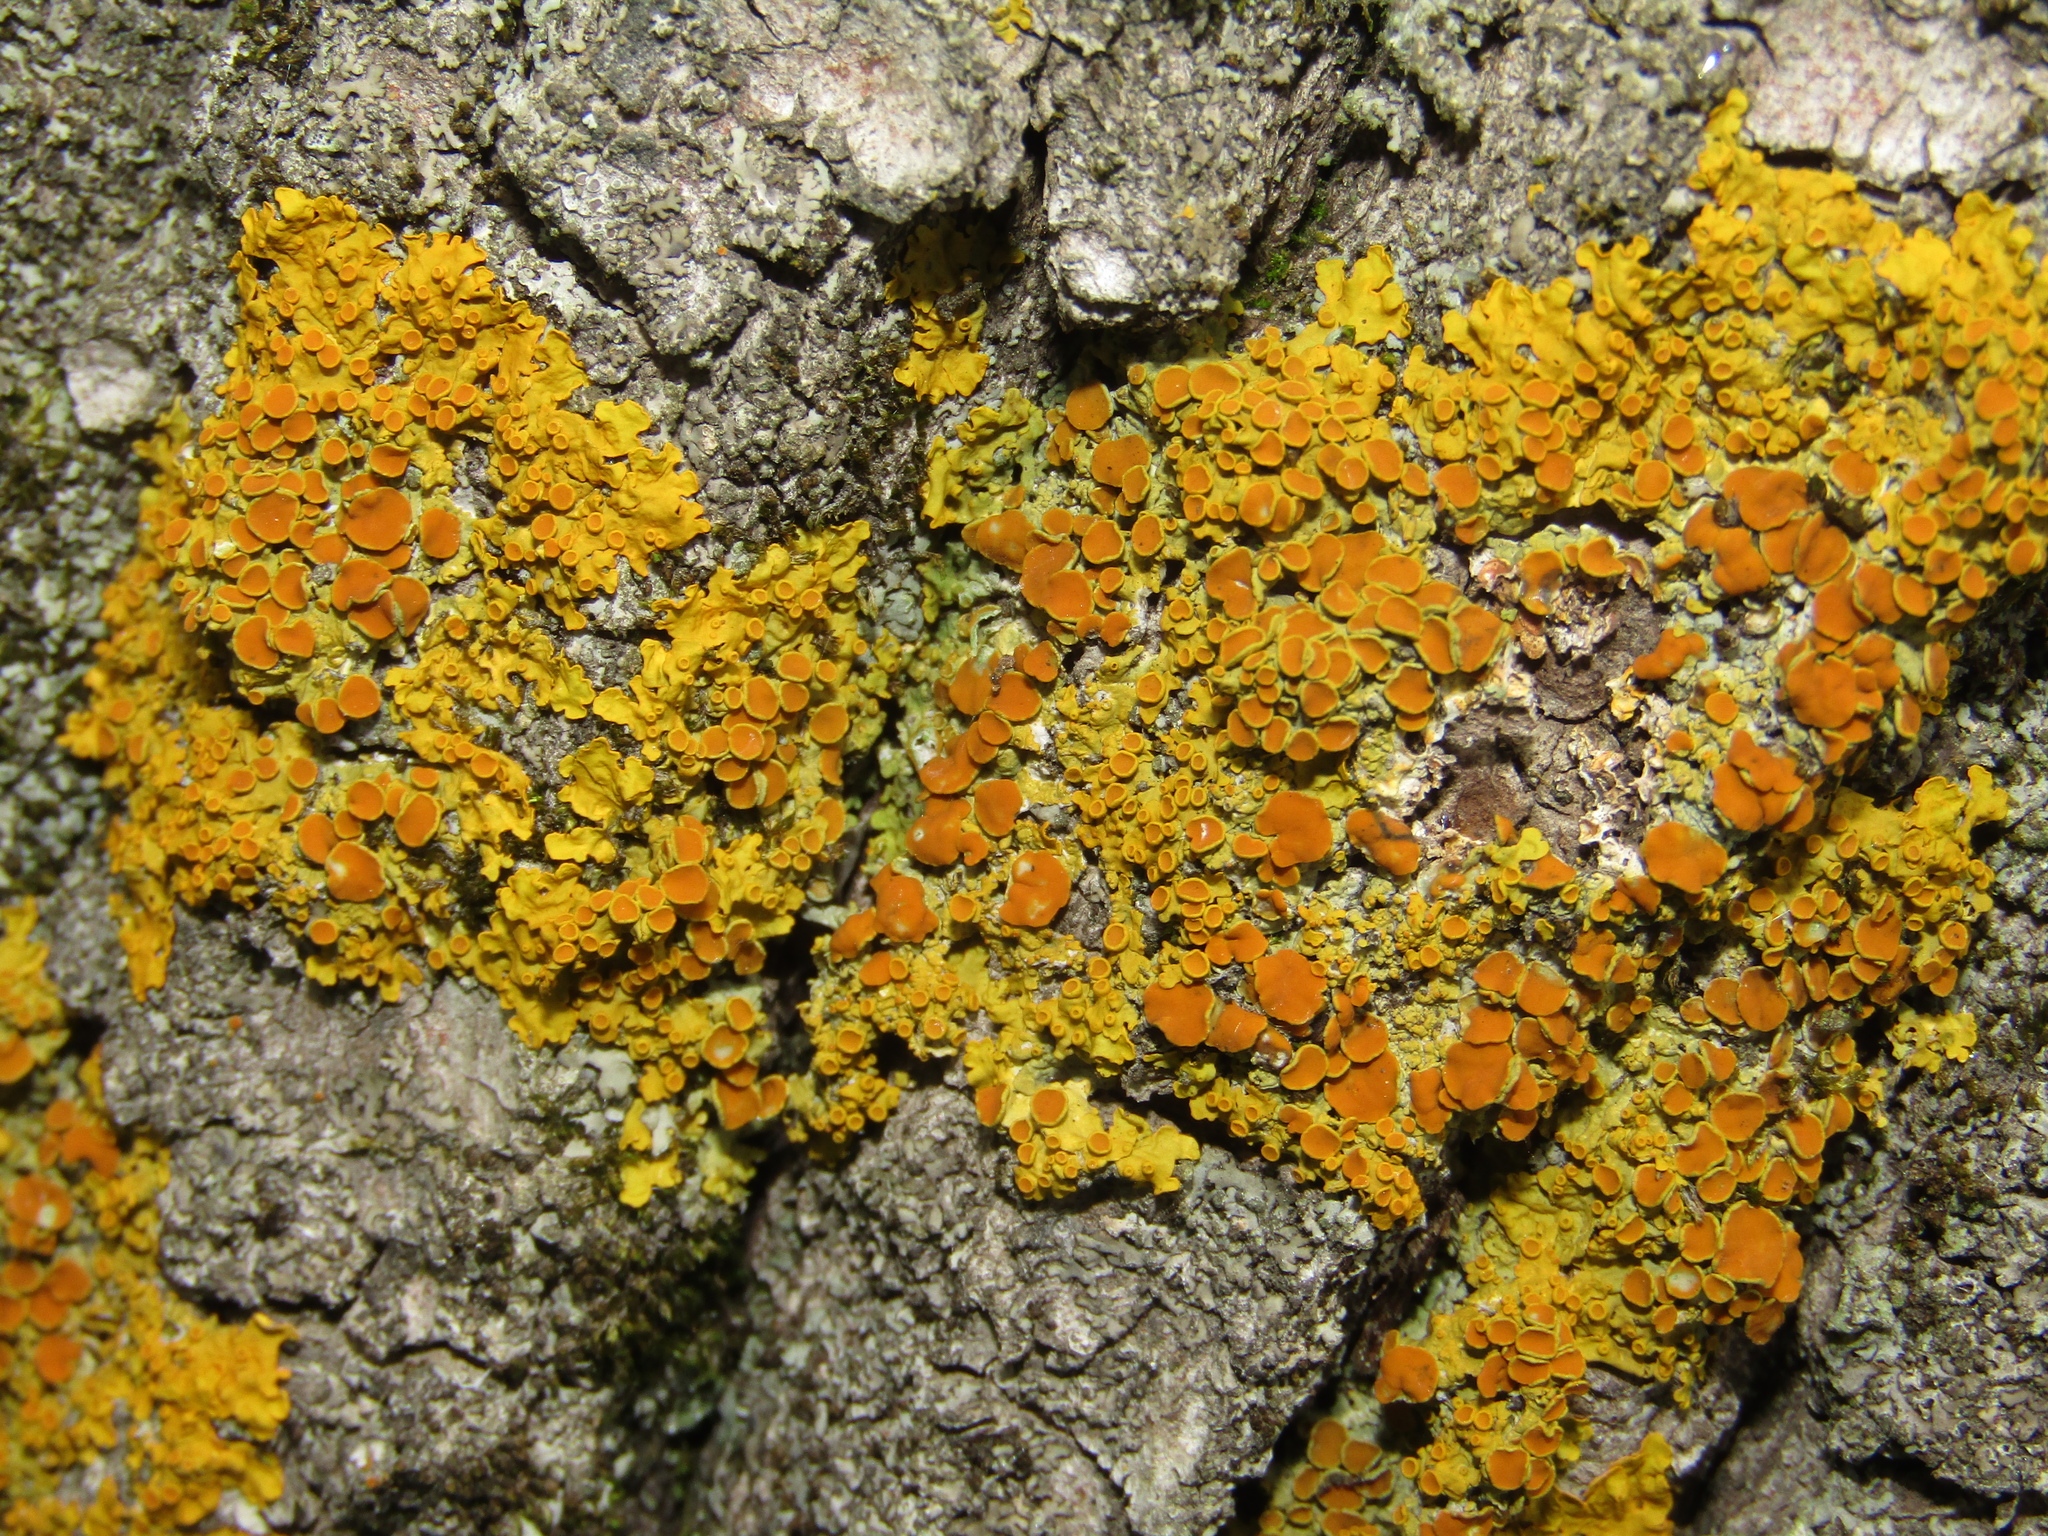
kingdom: Fungi
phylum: Ascomycota
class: Lecanoromycetes
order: Teloschistales
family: Teloschistaceae
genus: Xanthoria
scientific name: Xanthoria parietina
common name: Common orange lichen
